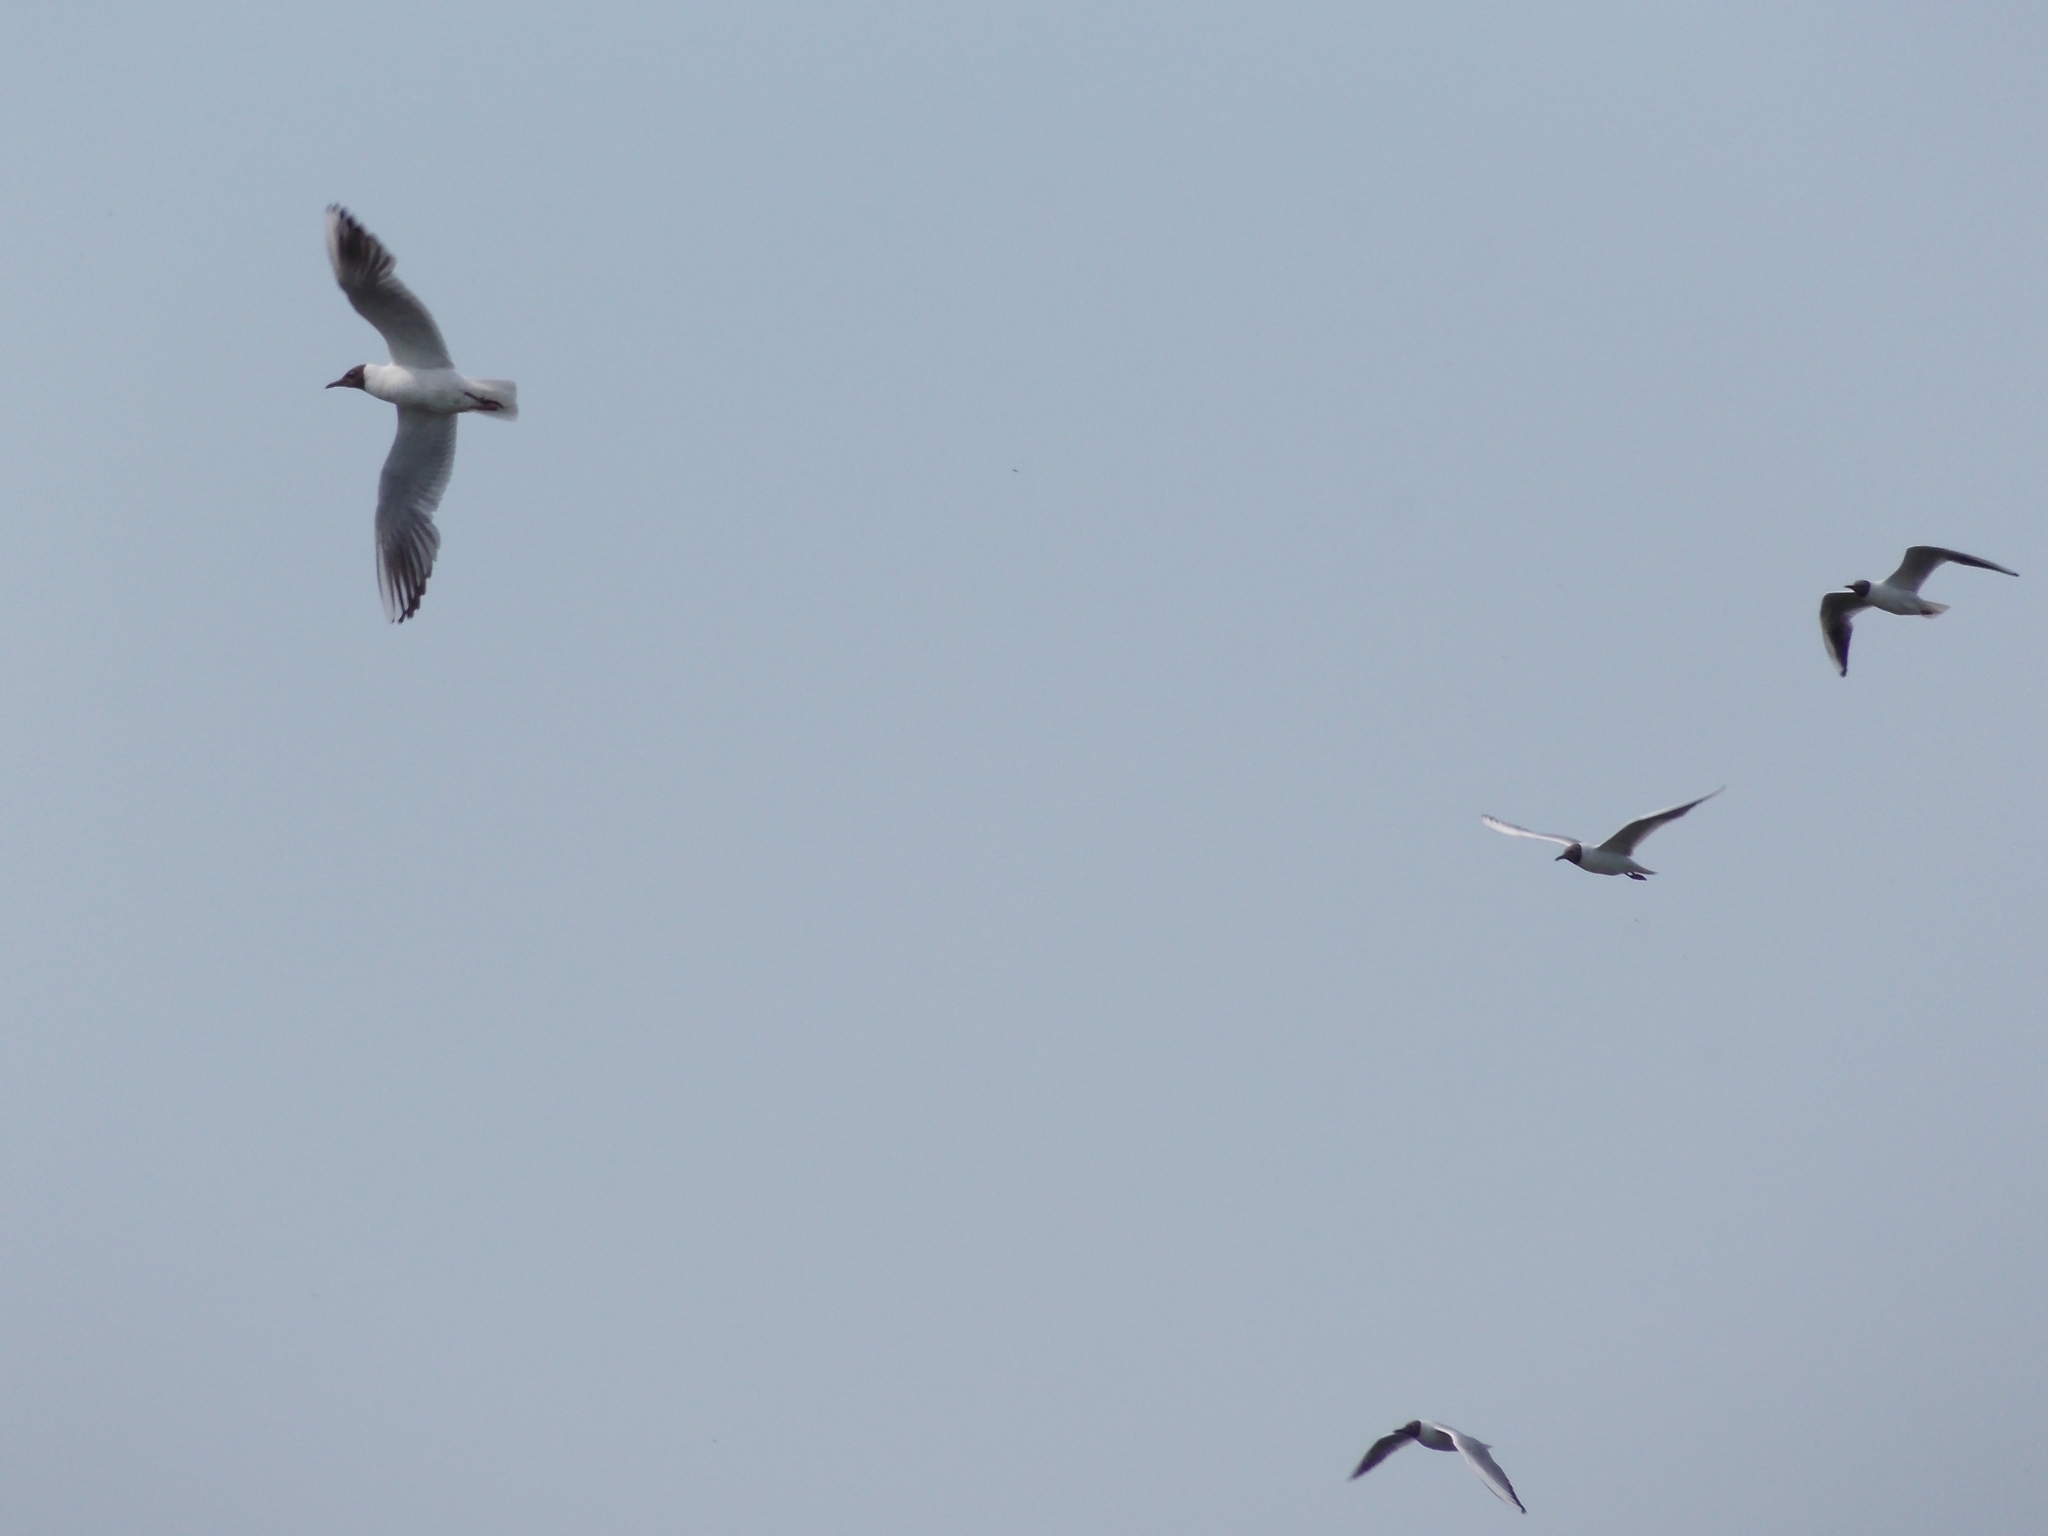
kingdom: Animalia
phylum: Chordata
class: Aves
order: Charadriiformes
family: Laridae
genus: Chroicocephalus
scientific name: Chroicocephalus ridibundus
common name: Black-headed gull
